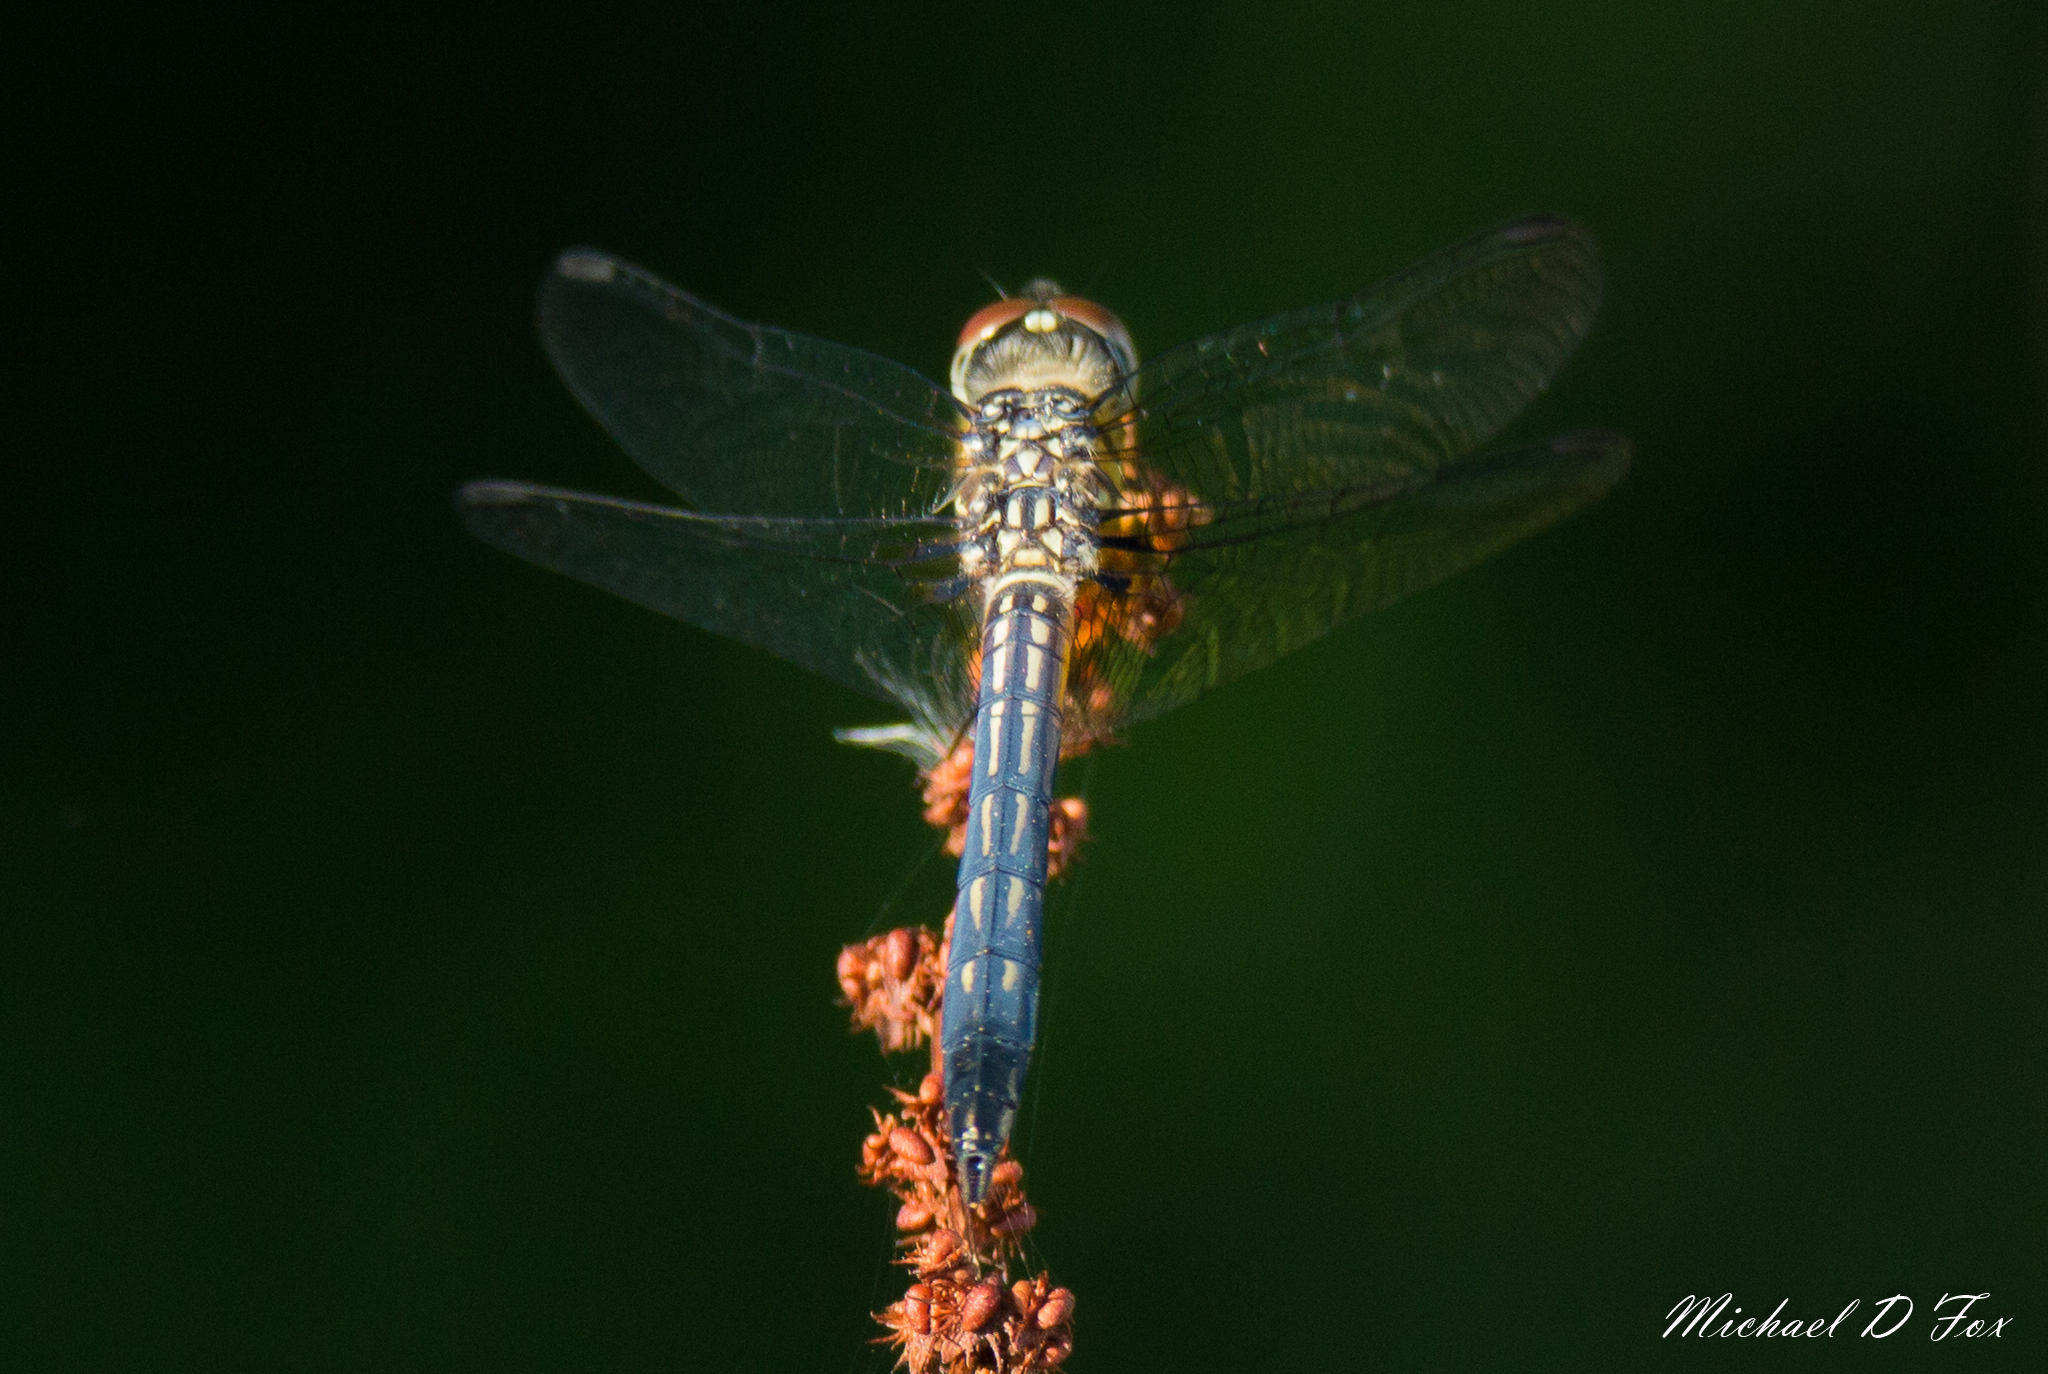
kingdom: Animalia
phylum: Arthropoda
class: Insecta
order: Odonata
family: Libellulidae
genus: Pachydiplax
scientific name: Pachydiplax longipennis
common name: Blue dasher
